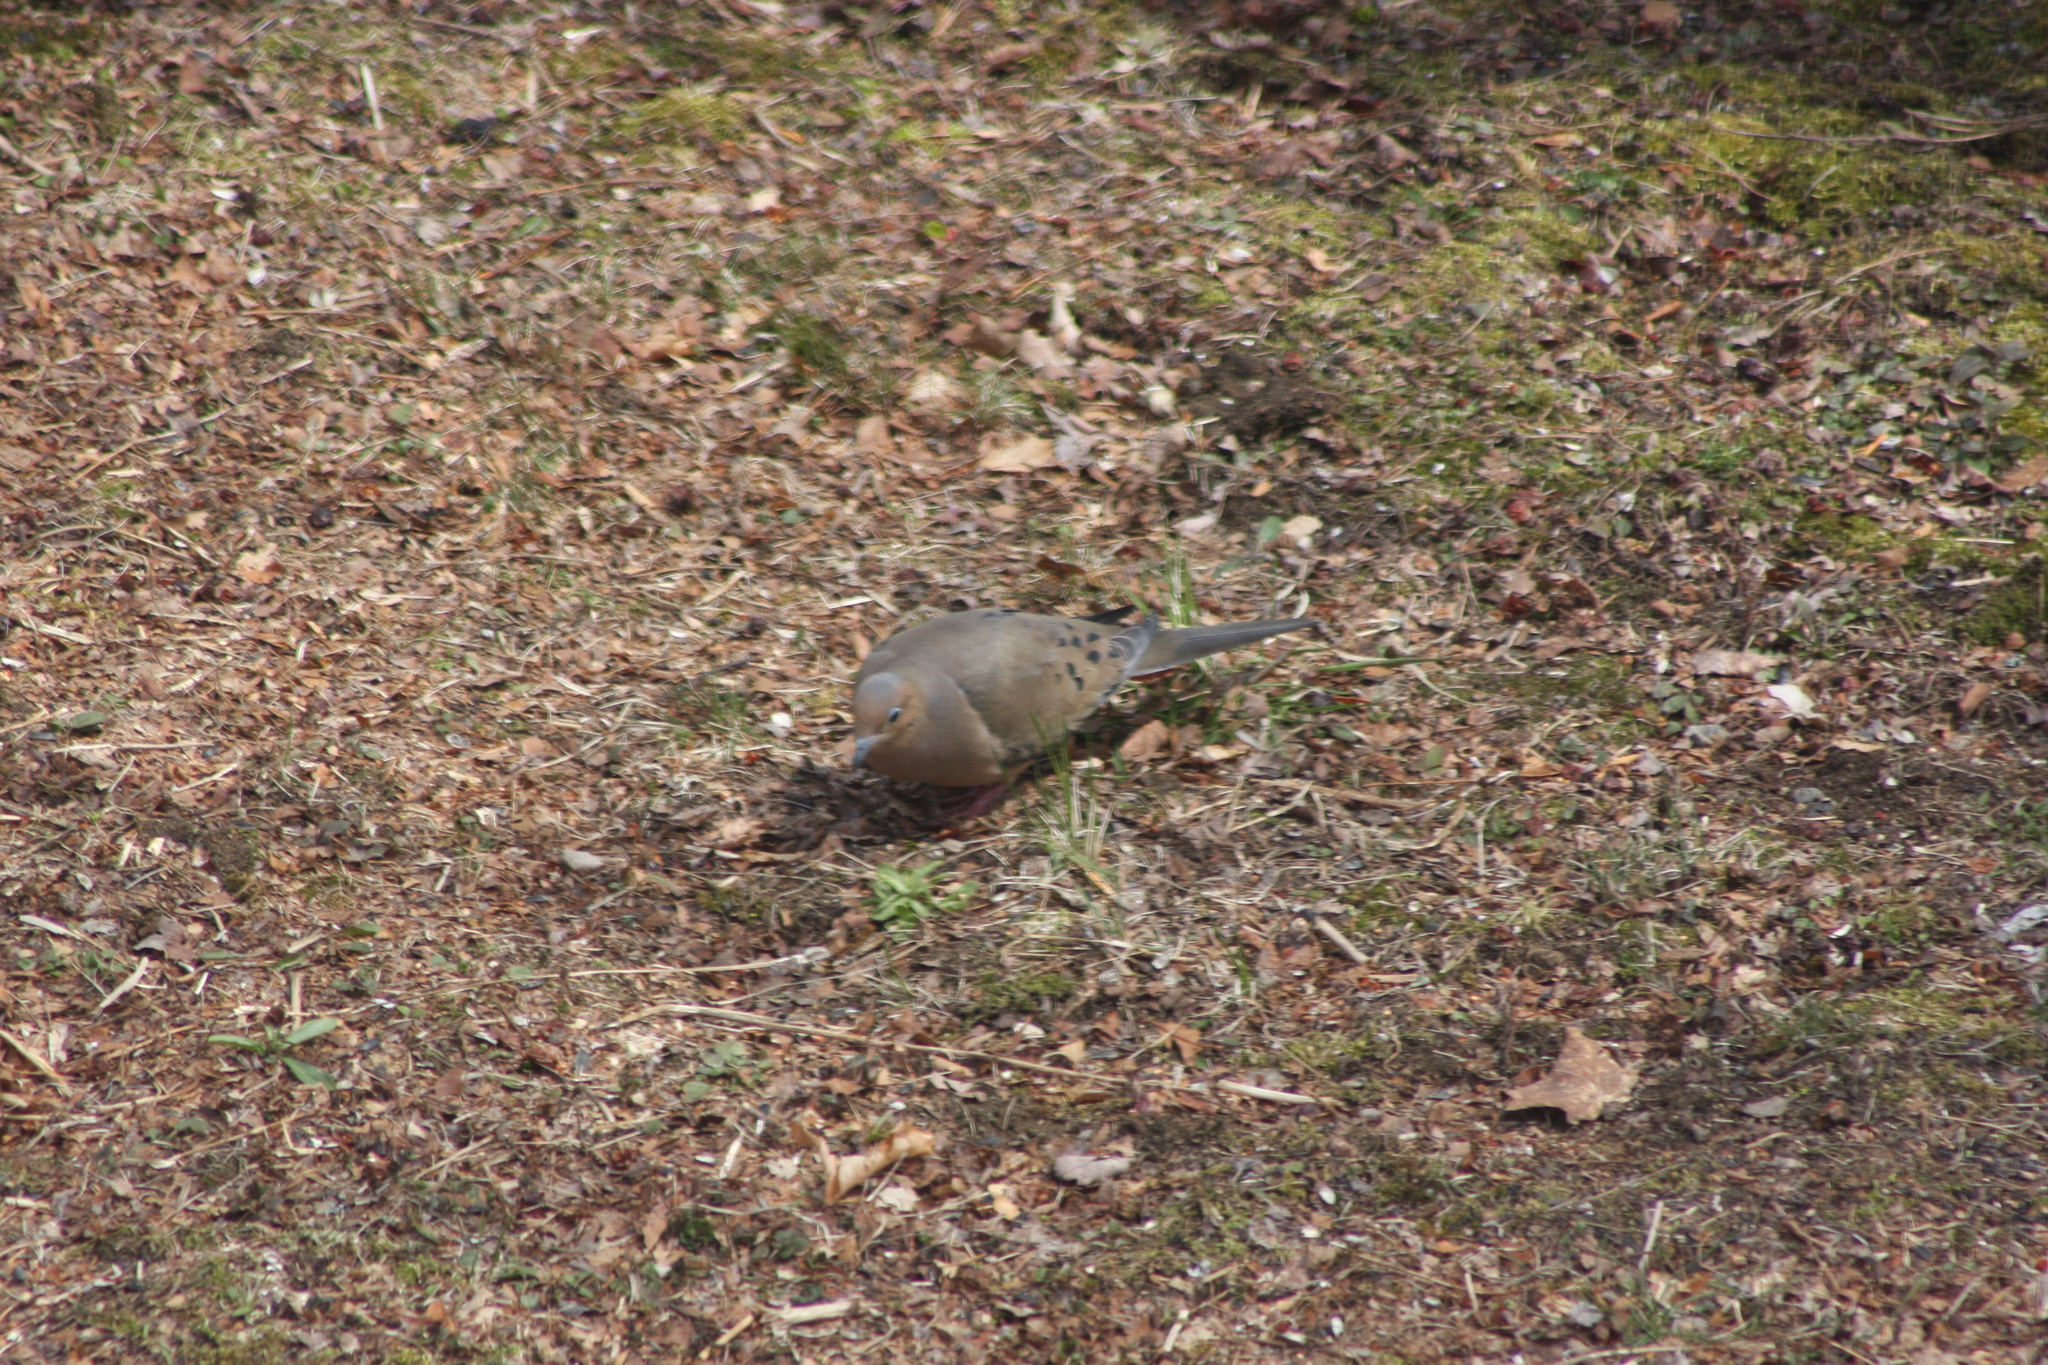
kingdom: Animalia
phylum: Chordata
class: Aves
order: Columbiformes
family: Columbidae
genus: Zenaida
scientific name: Zenaida macroura
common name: Mourning dove
